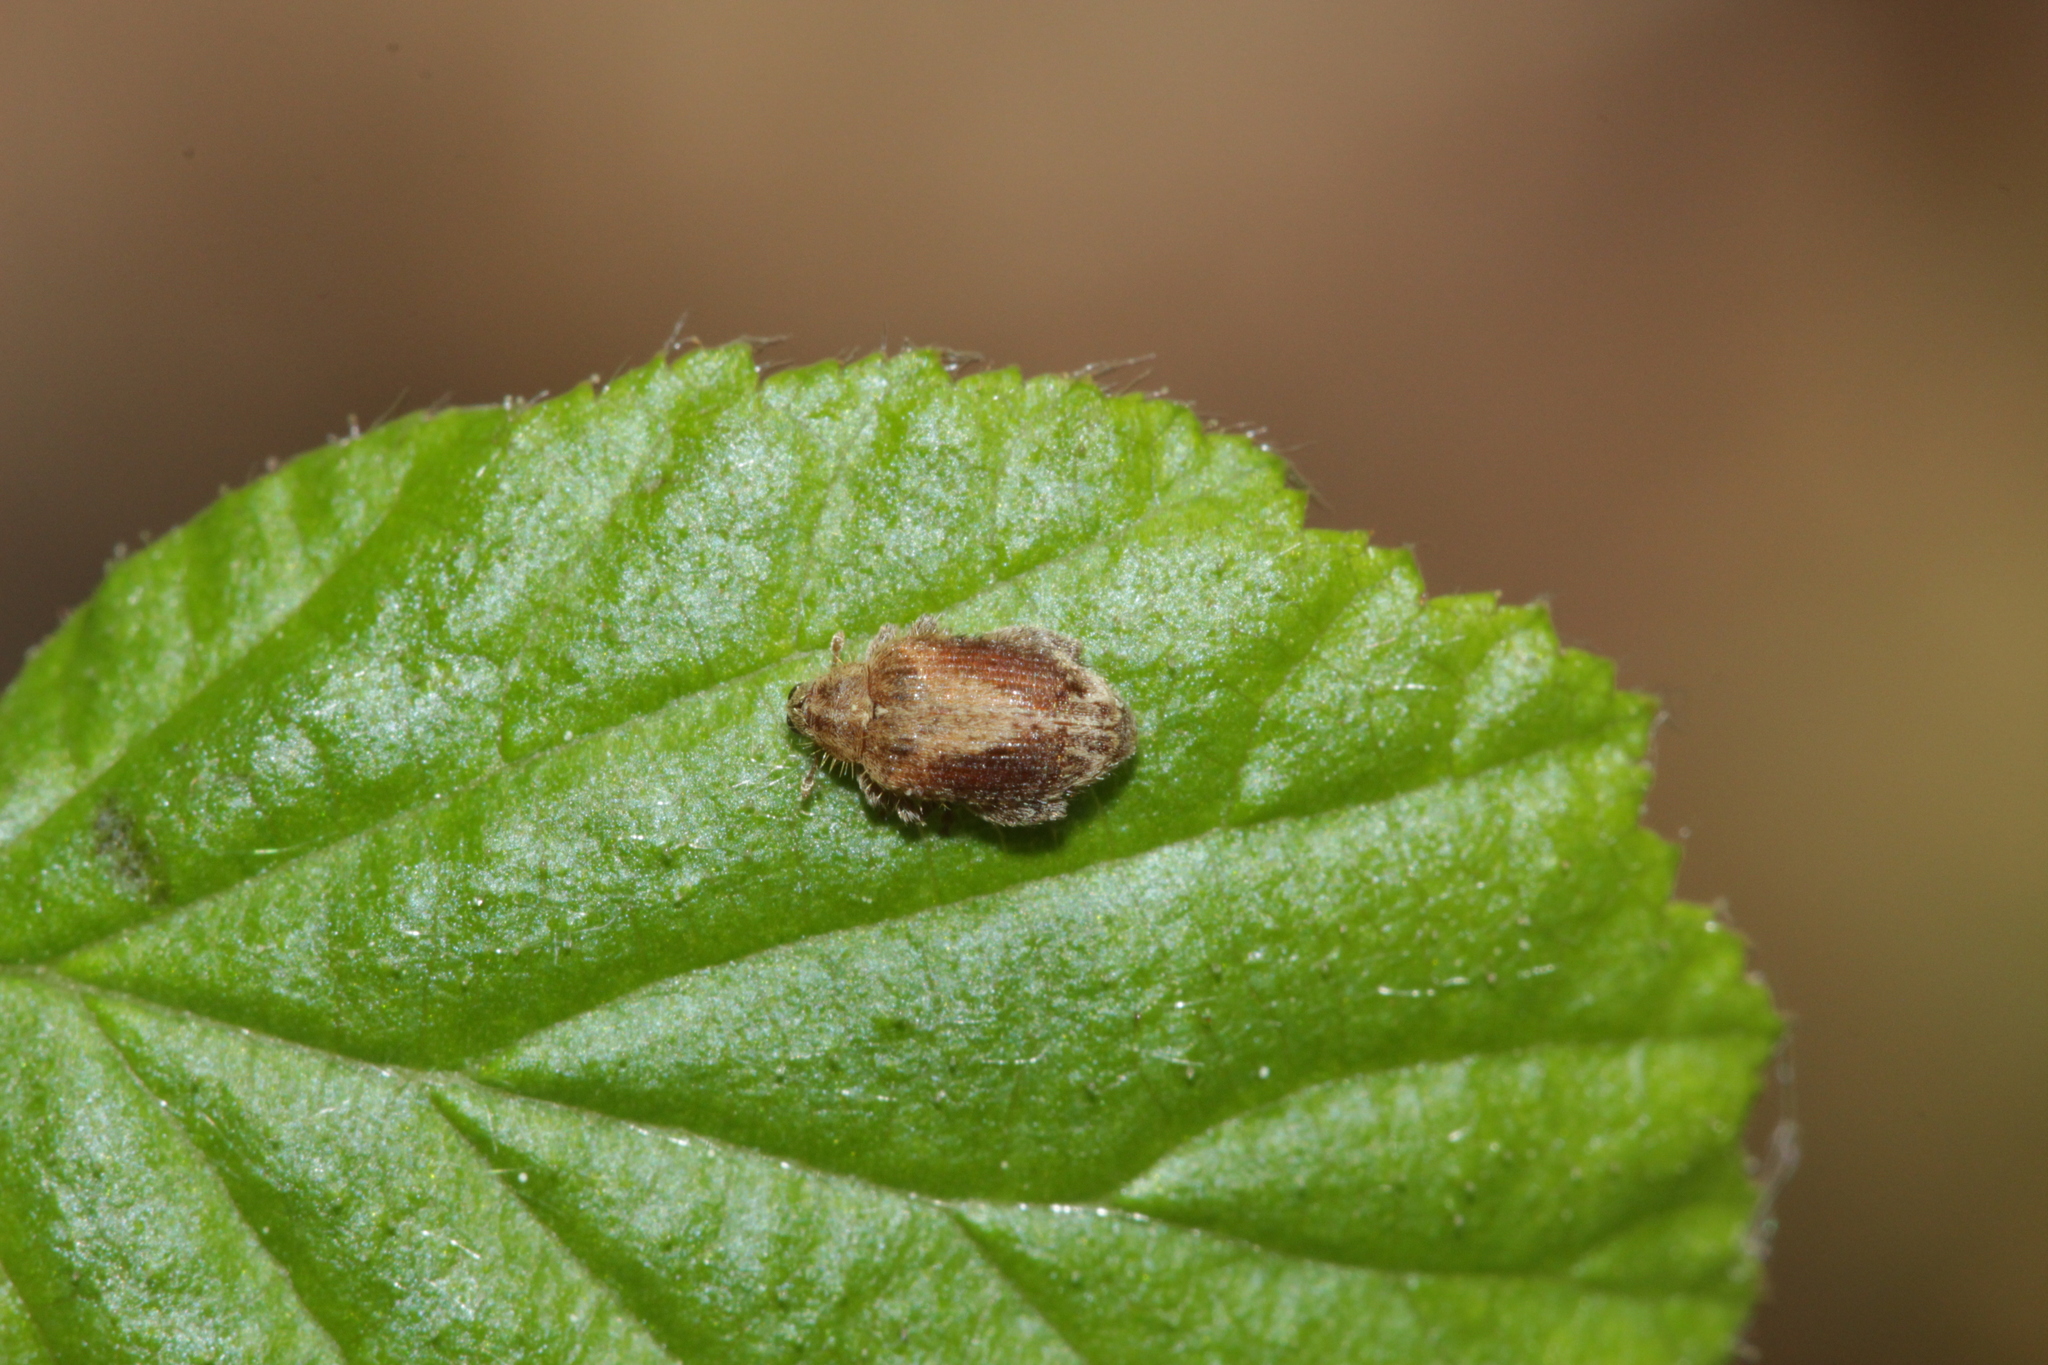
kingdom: Animalia
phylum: Arthropoda
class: Insecta
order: Coleoptera
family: Curculionidae
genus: Orchestes
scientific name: Orchestes quercus
